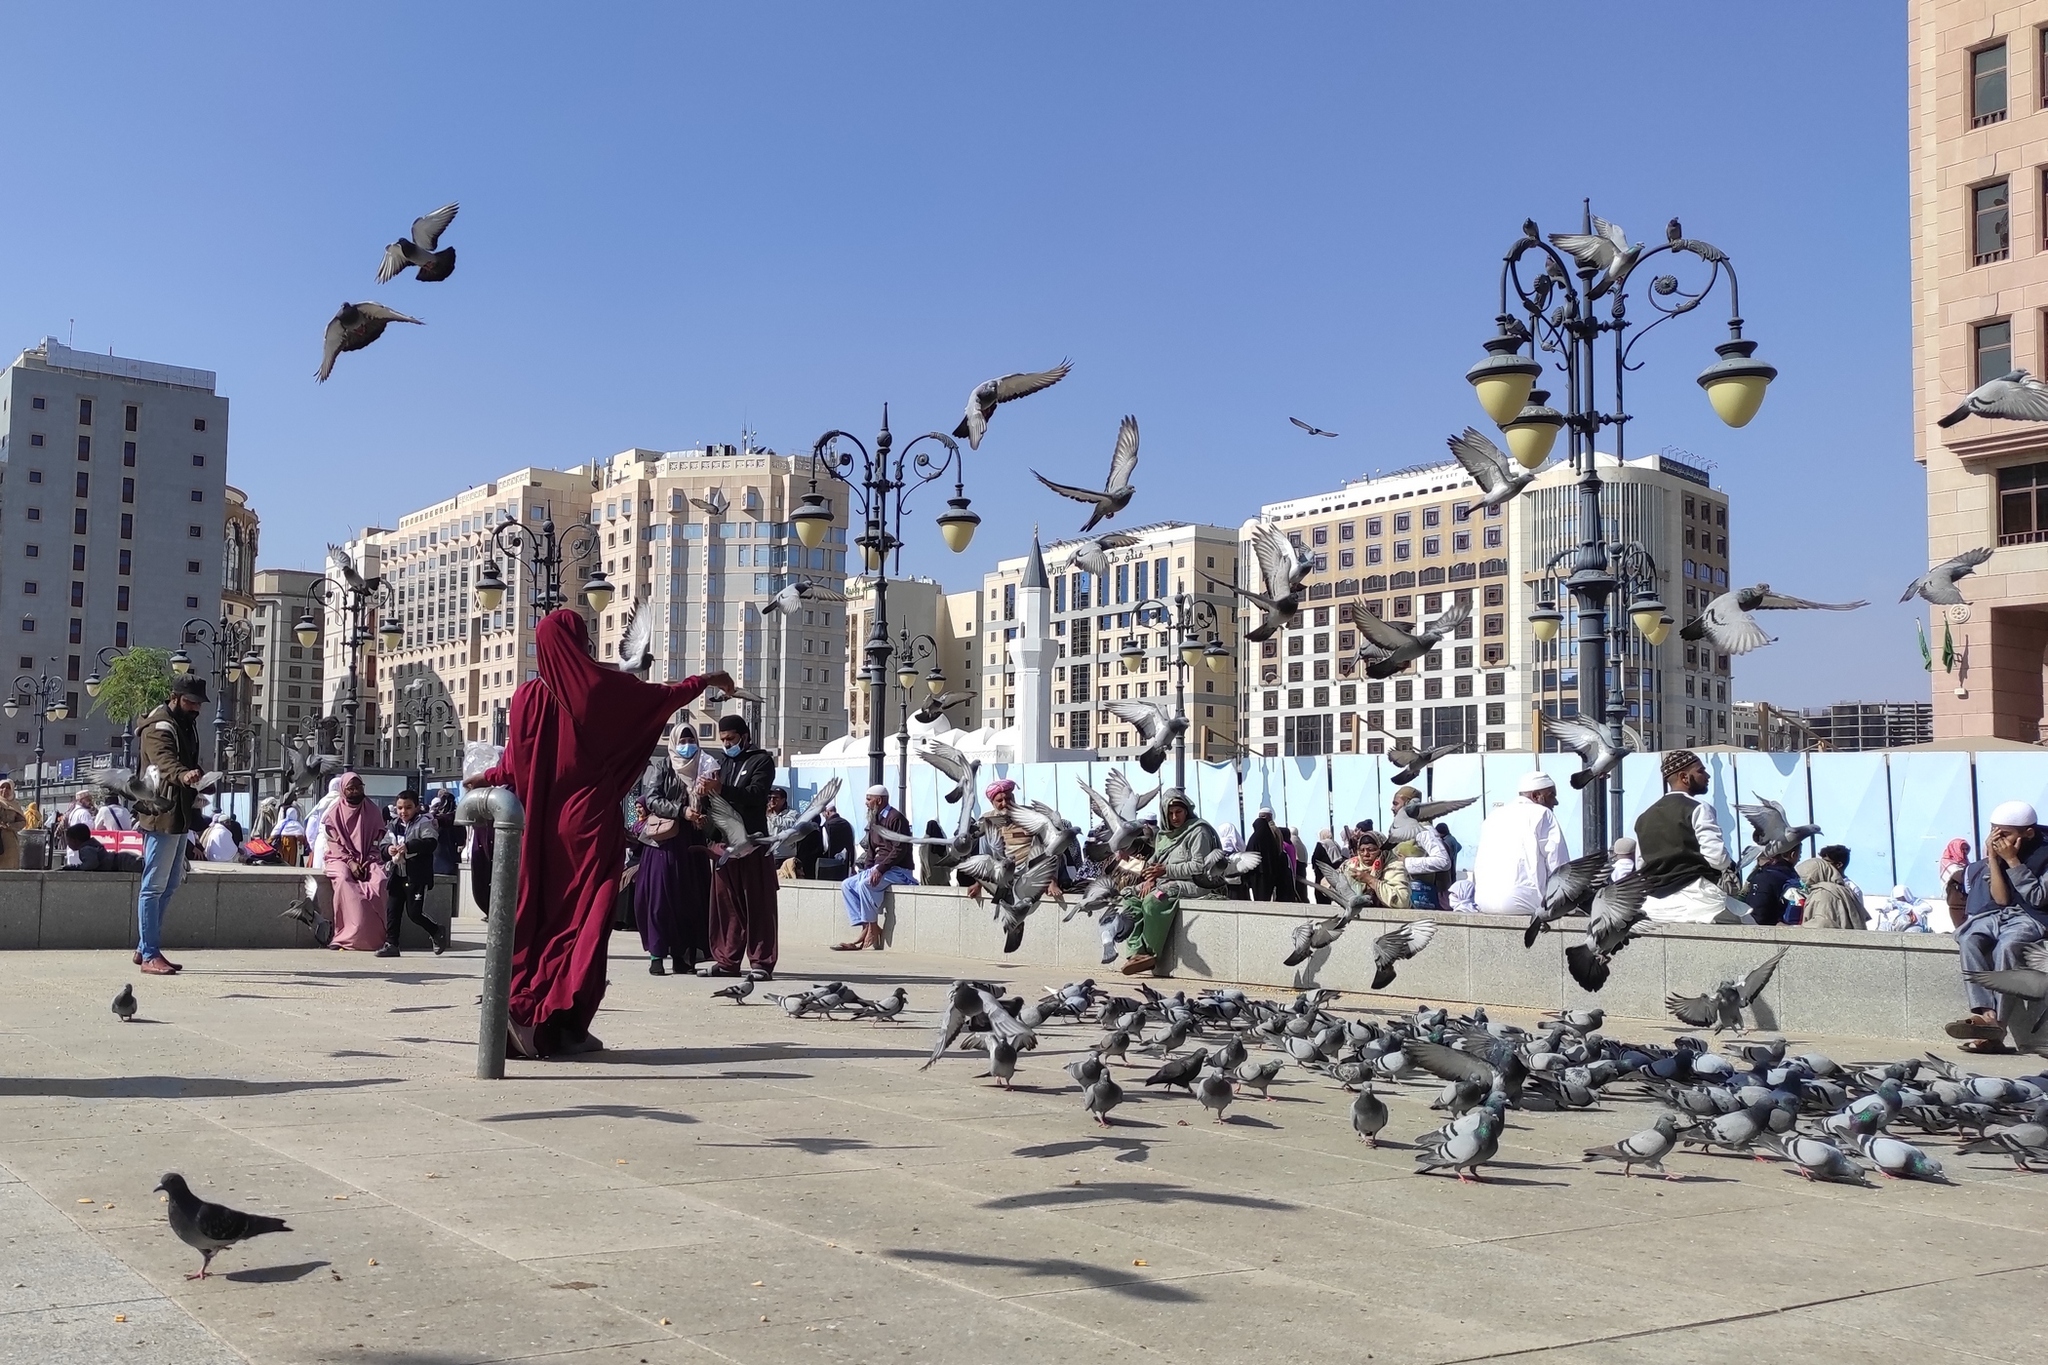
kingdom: Animalia
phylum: Chordata
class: Aves
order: Columbiformes
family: Columbidae
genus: Columba
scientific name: Columba livia
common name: Rock pigeon
